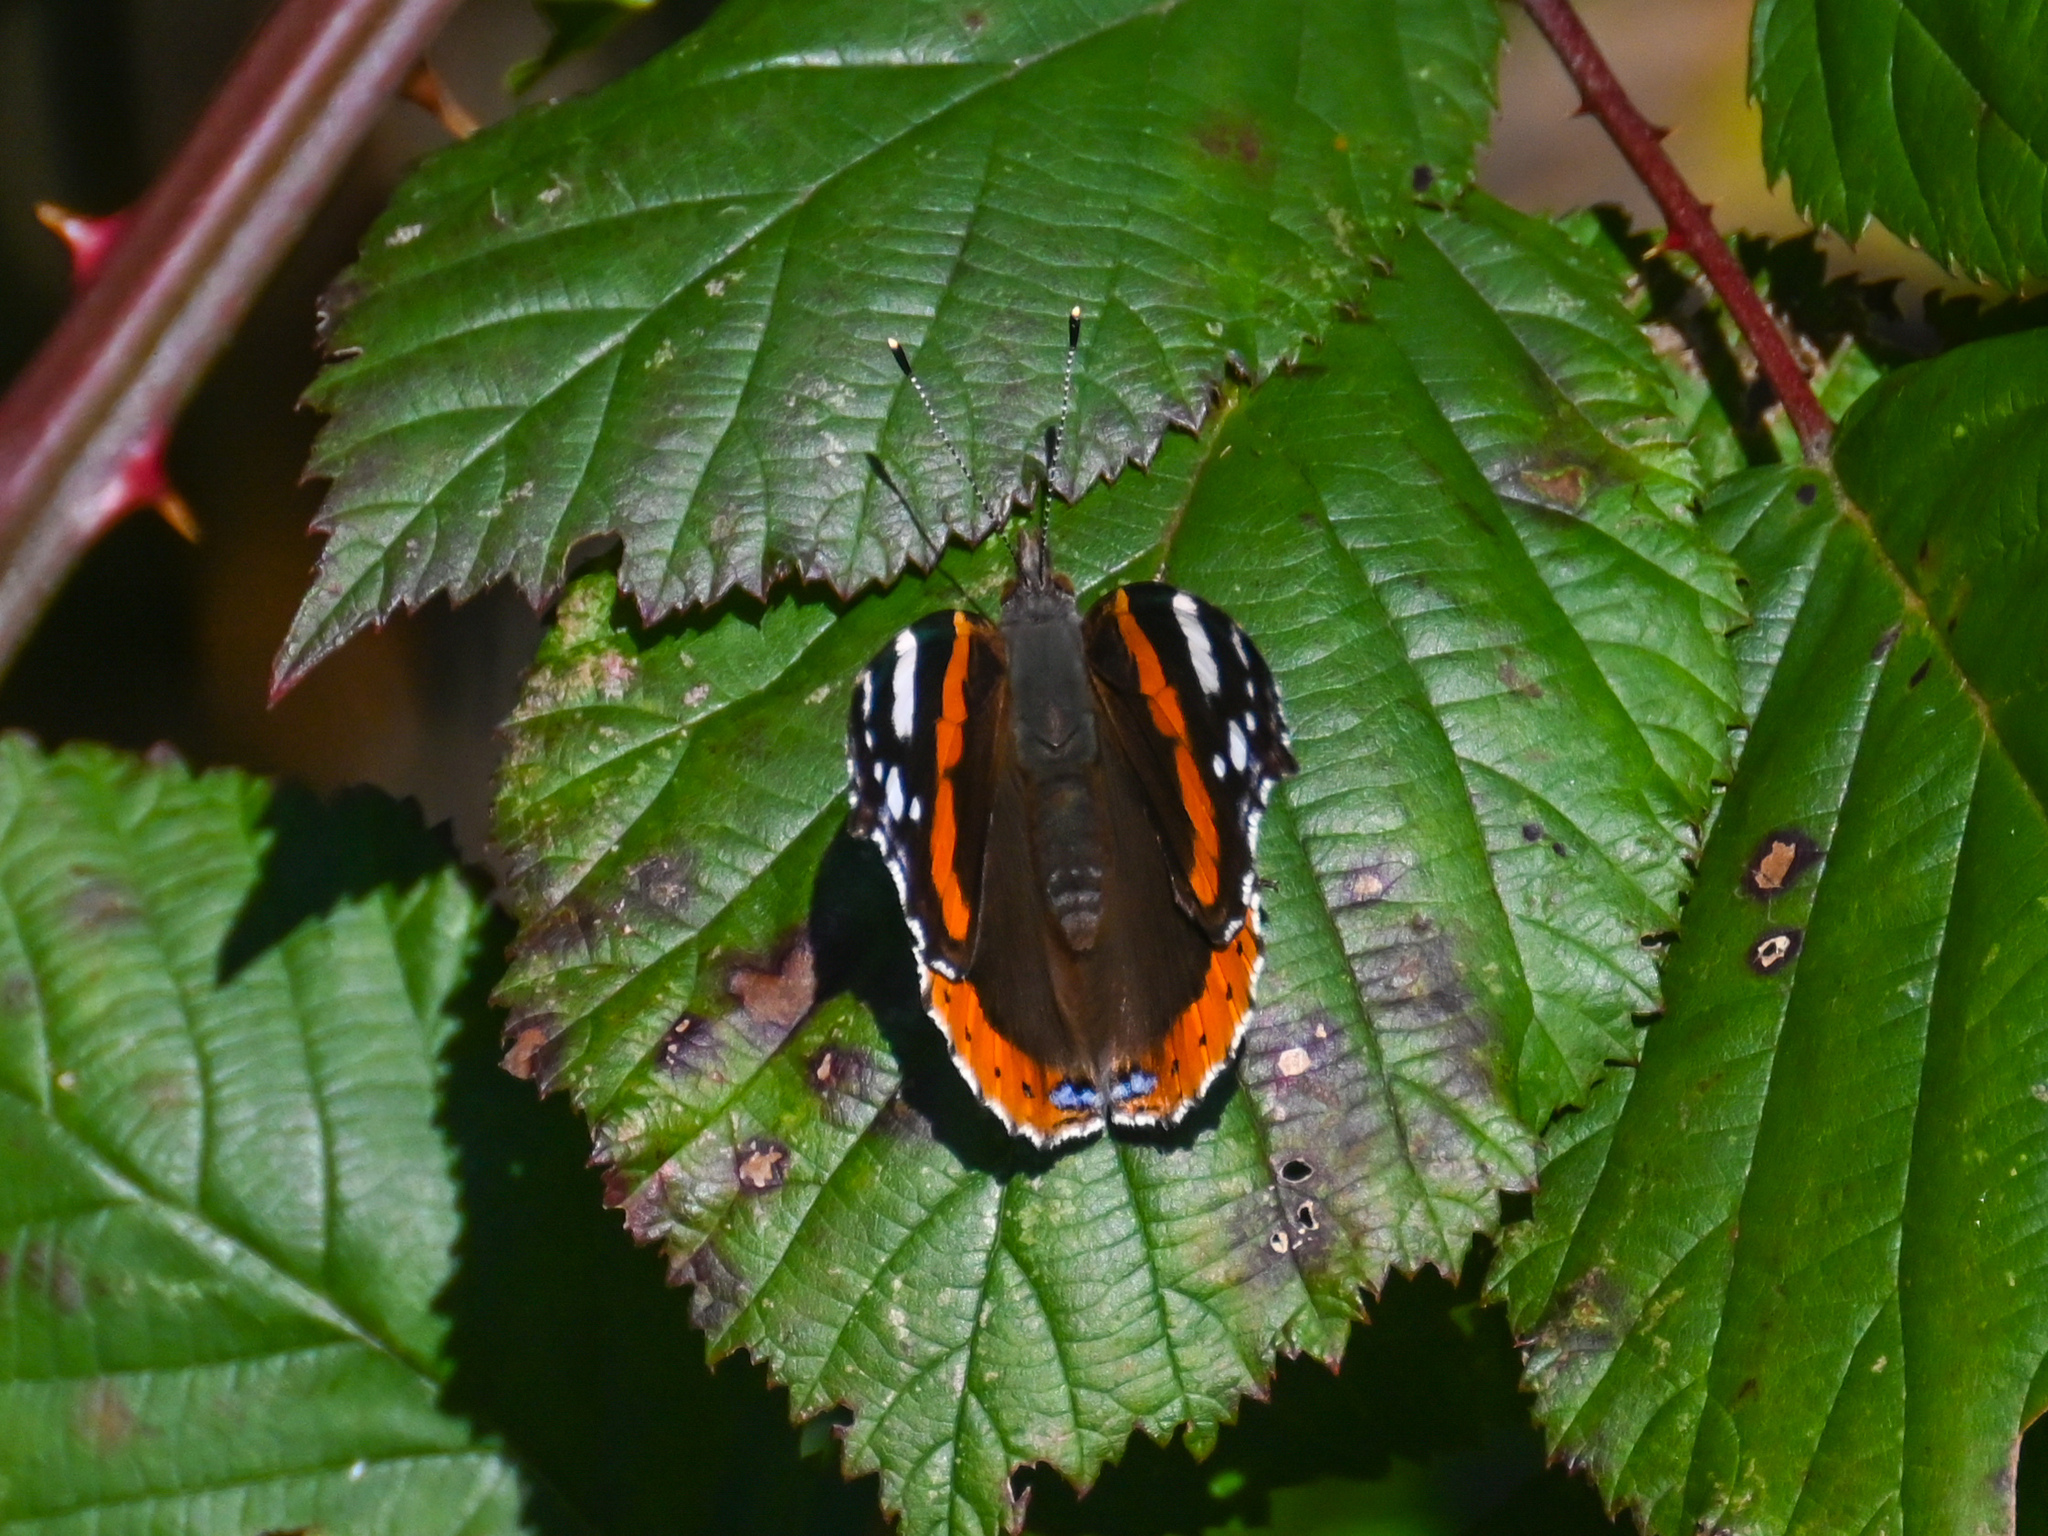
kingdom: Animalia
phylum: Arthropoda
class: Insecta
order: Lepidoptera
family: Nymphalidae
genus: Vanessa
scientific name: Vanessa atalanta
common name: Red admiral
